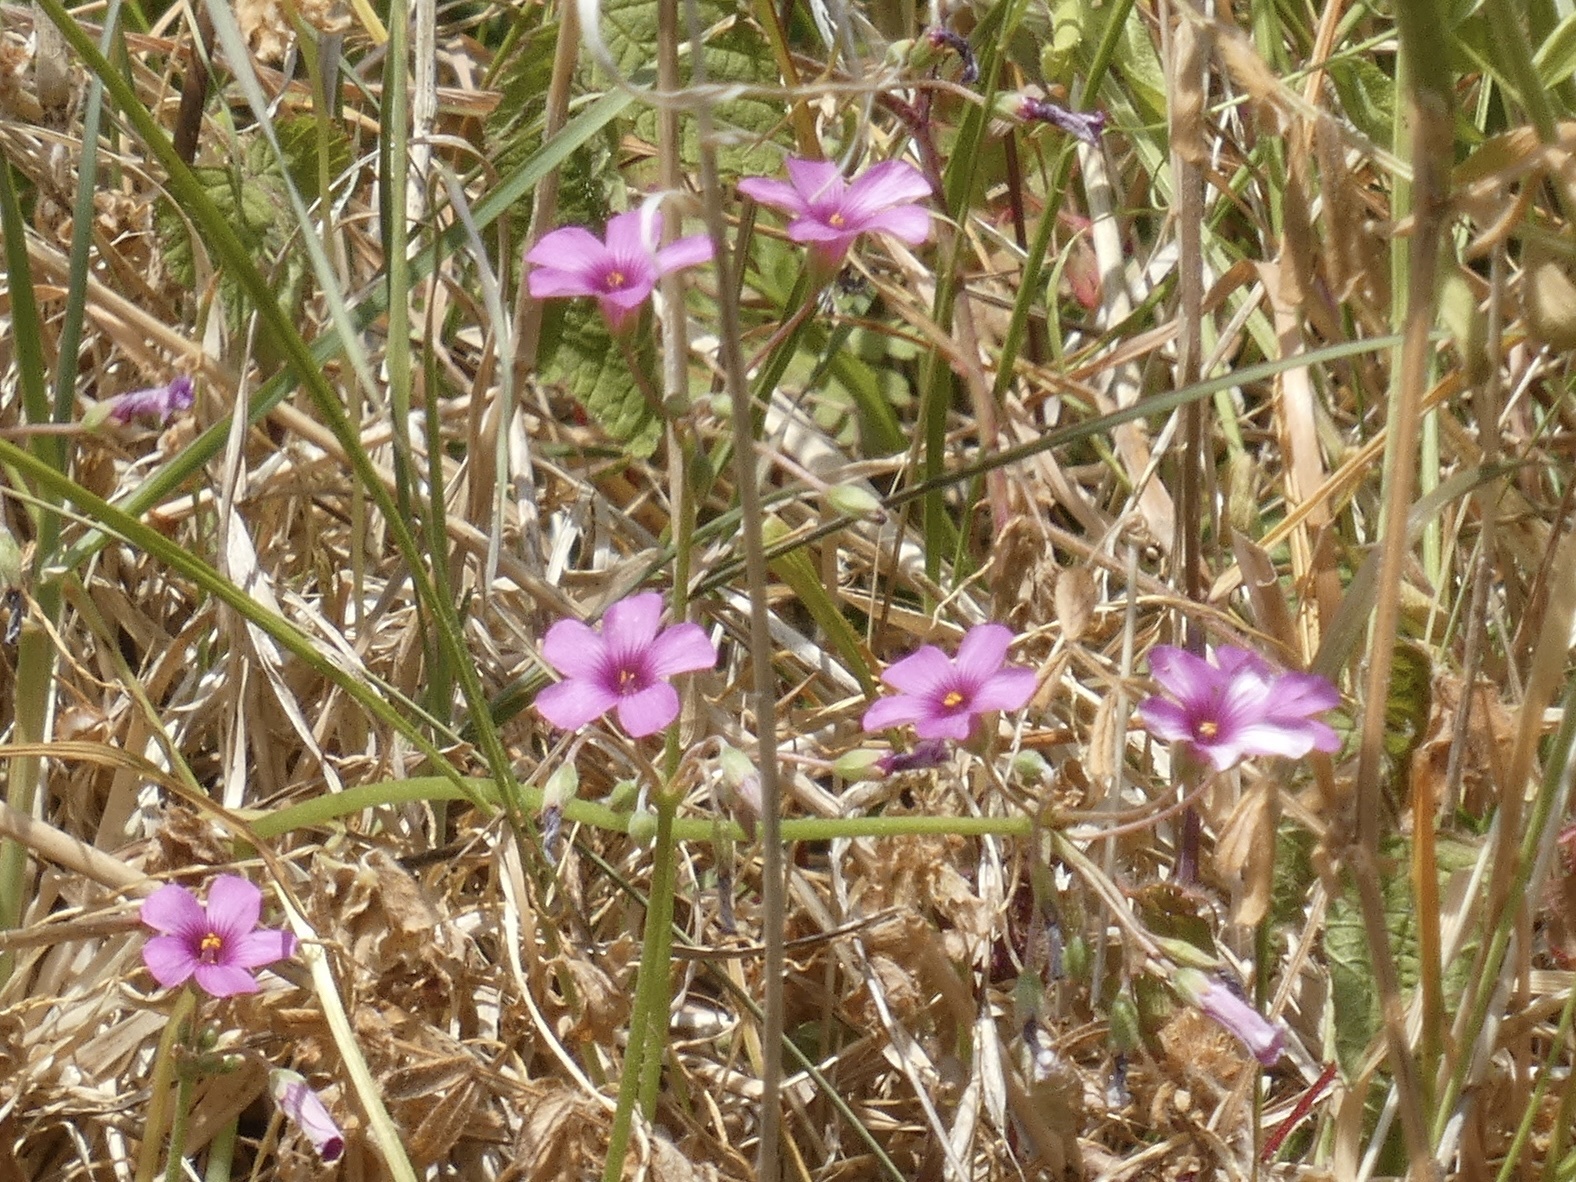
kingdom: Plantae
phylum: Tracheophyta
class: Magnoliopsida
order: Oxalidales
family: Oxalidaceae
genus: Oxalis
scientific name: Oxalis articulata
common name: Pink-sorrel
